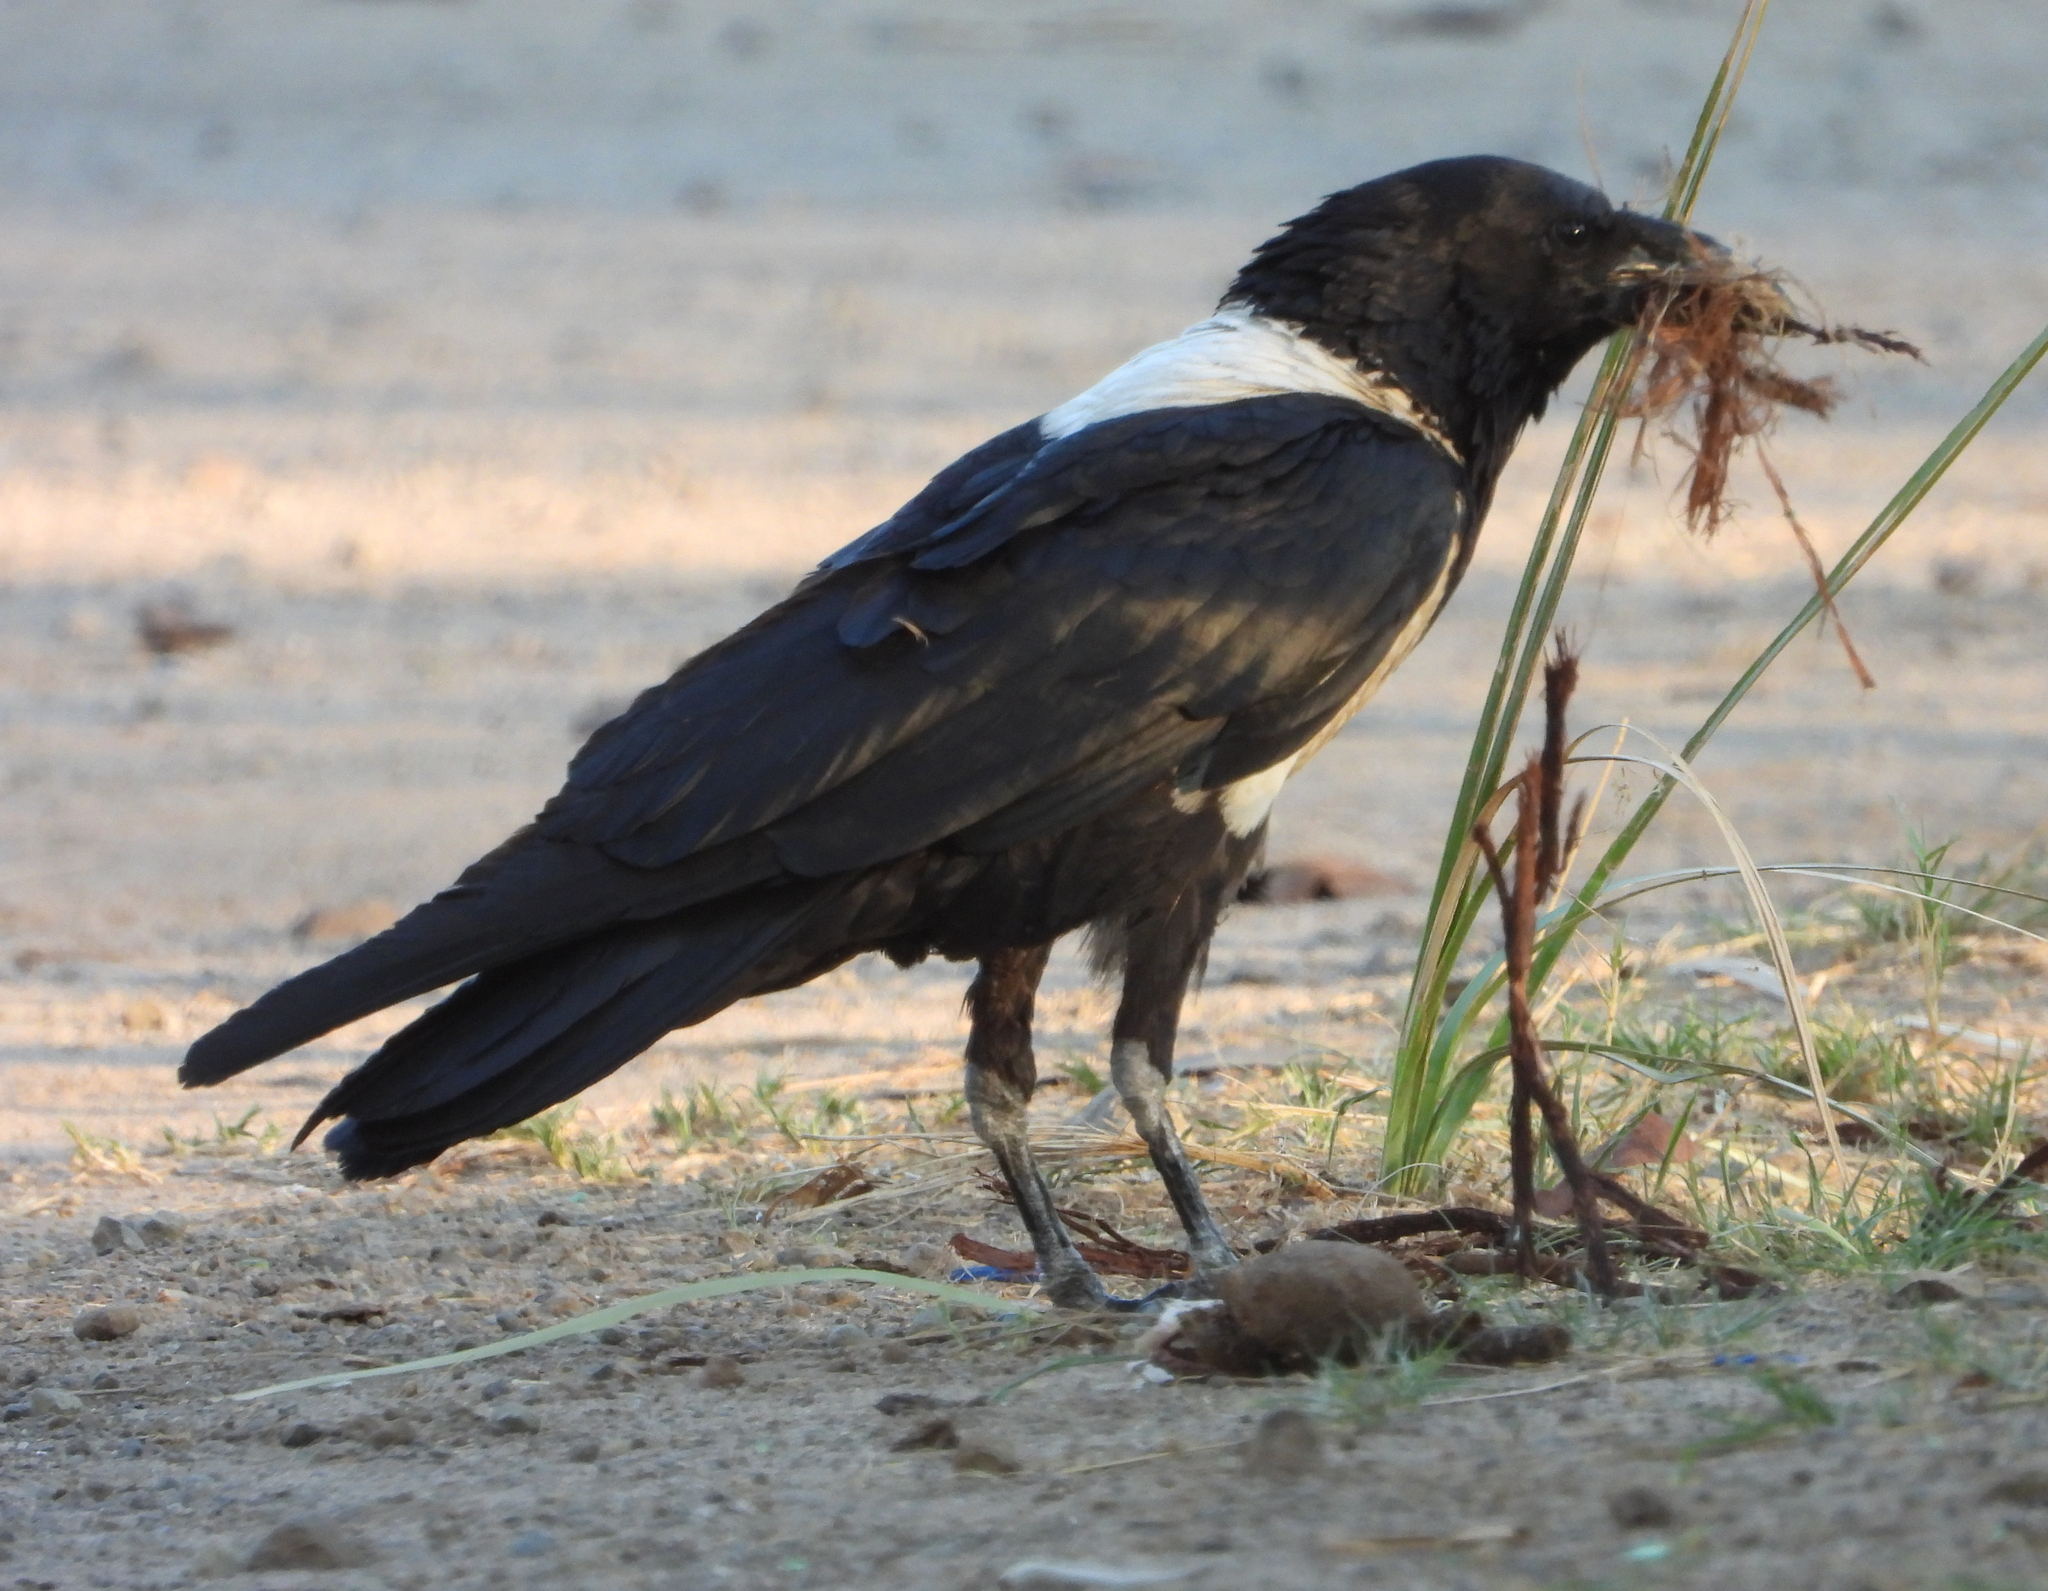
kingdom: Animalia
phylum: Chordata
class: Aves
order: Passeriformes
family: Corvidae
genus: Corvus
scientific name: Corvus albus
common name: Pied crow
